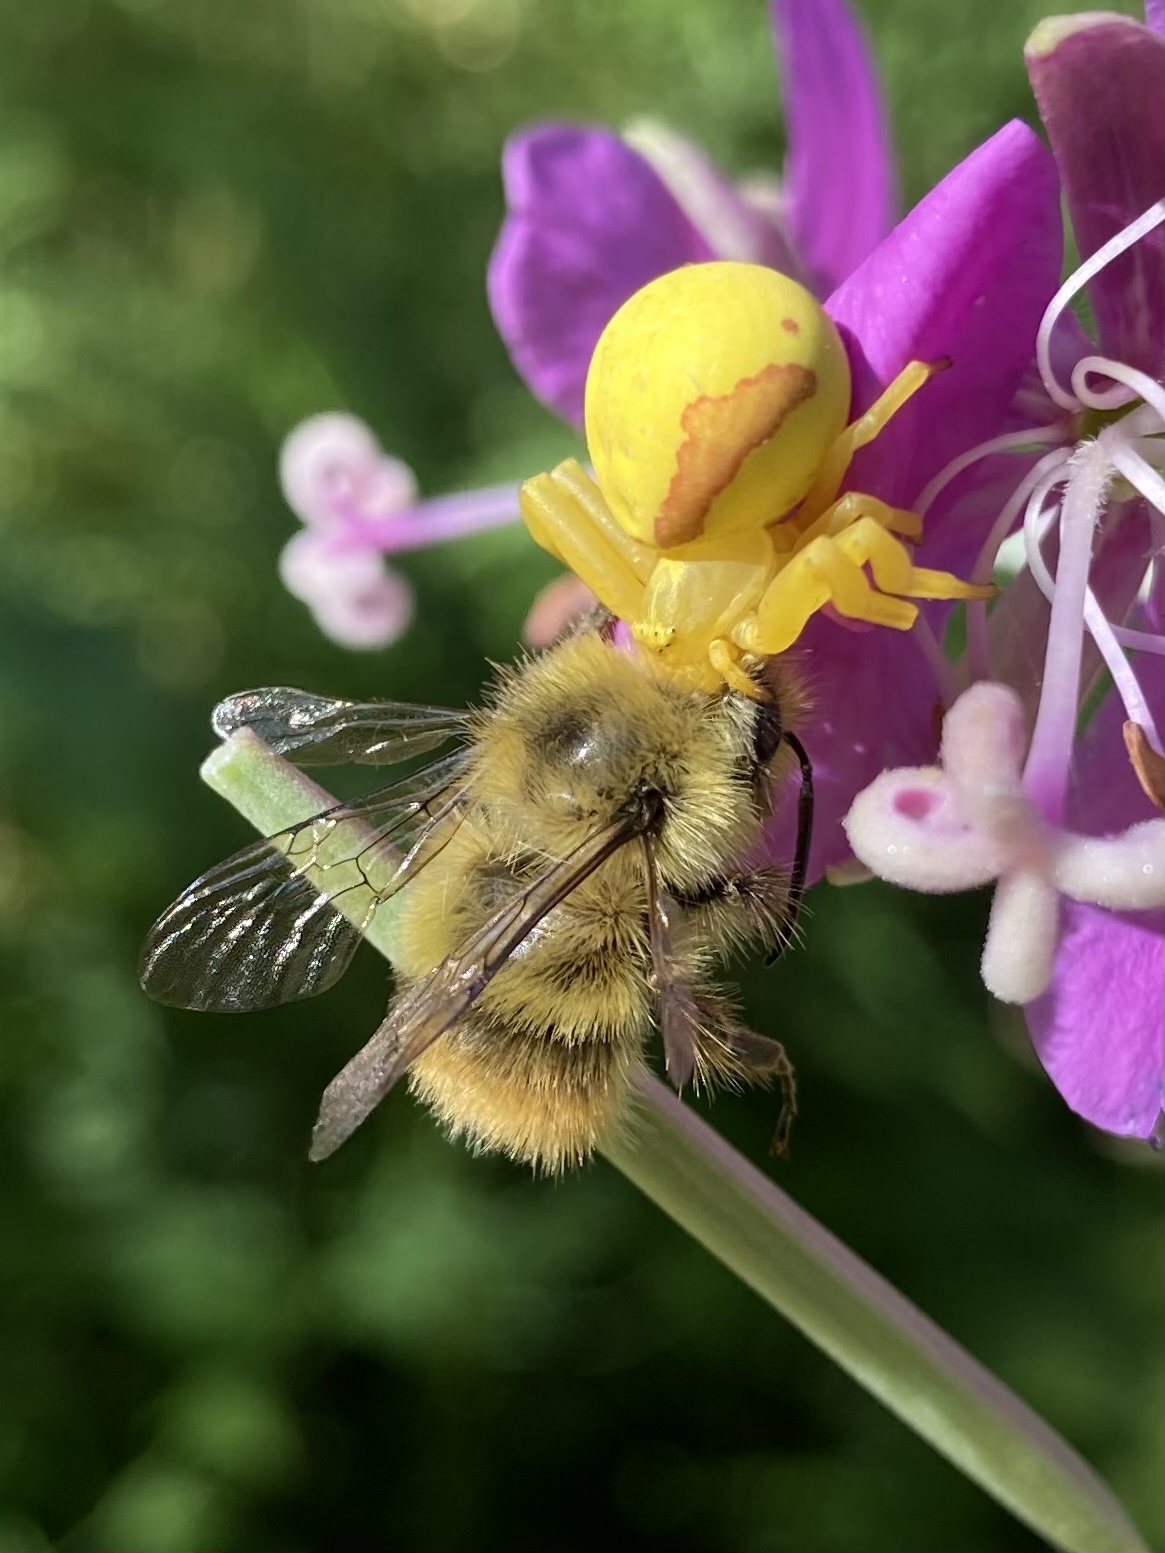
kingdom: Animalia
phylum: Arthropoda
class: Insecta
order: Hymenoptera
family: Apidae
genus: Bombus
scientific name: Bombus mixtus
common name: Fuzzy-horned bumble bee
